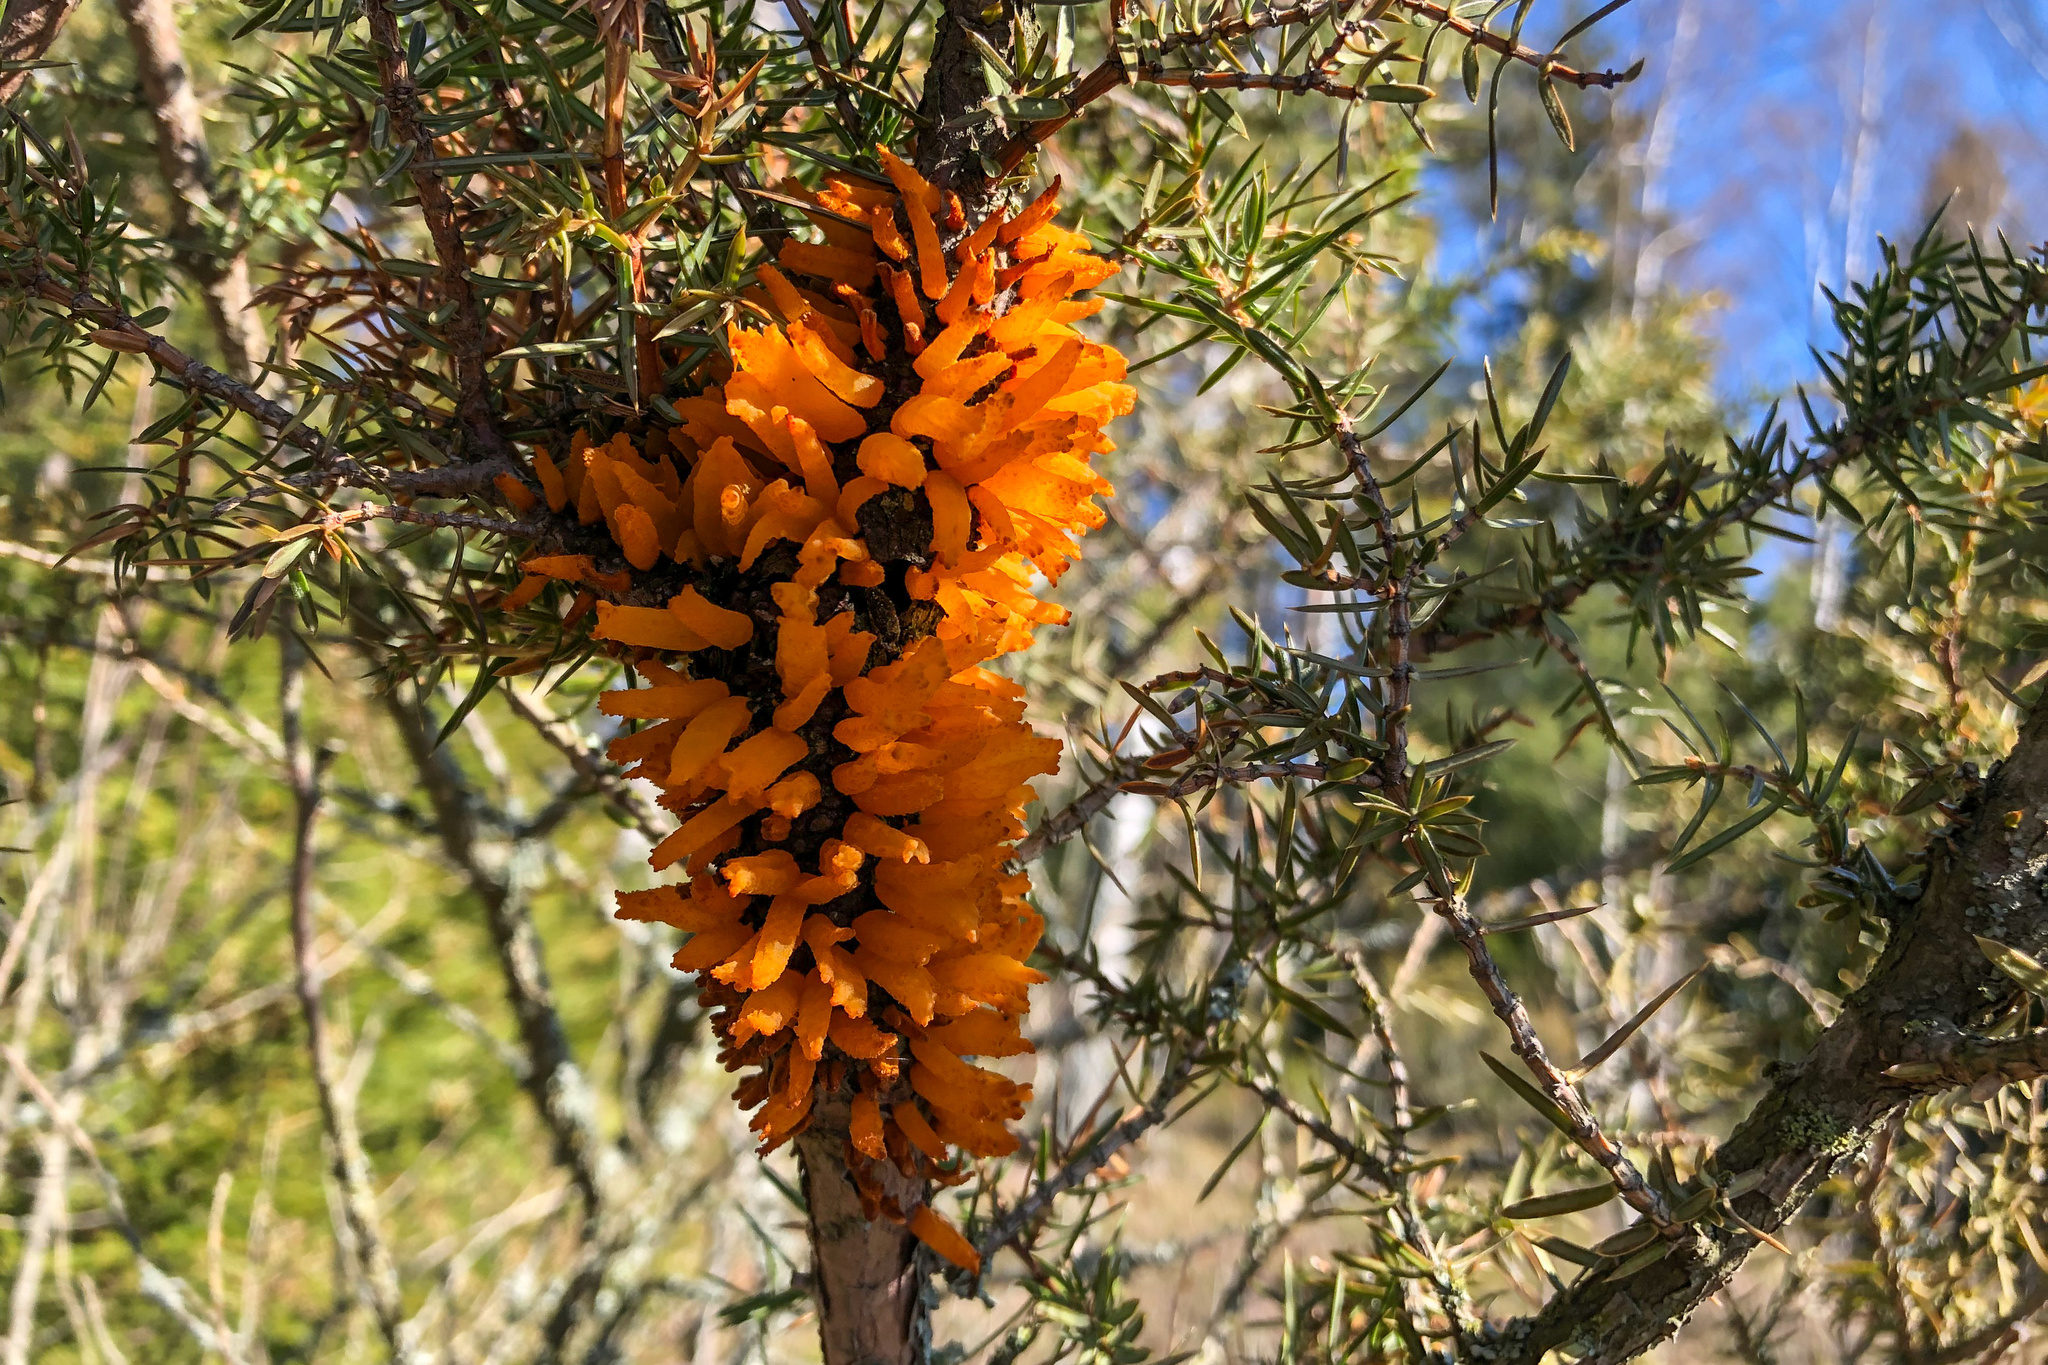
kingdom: Fungi
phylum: Basidiomycota
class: Pucciniomycetes
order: Pucciniales
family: Gymnosporangiaceae
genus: Gymnosporangium
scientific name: Gymnosporangium clavariiforme
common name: Tongues of fire
